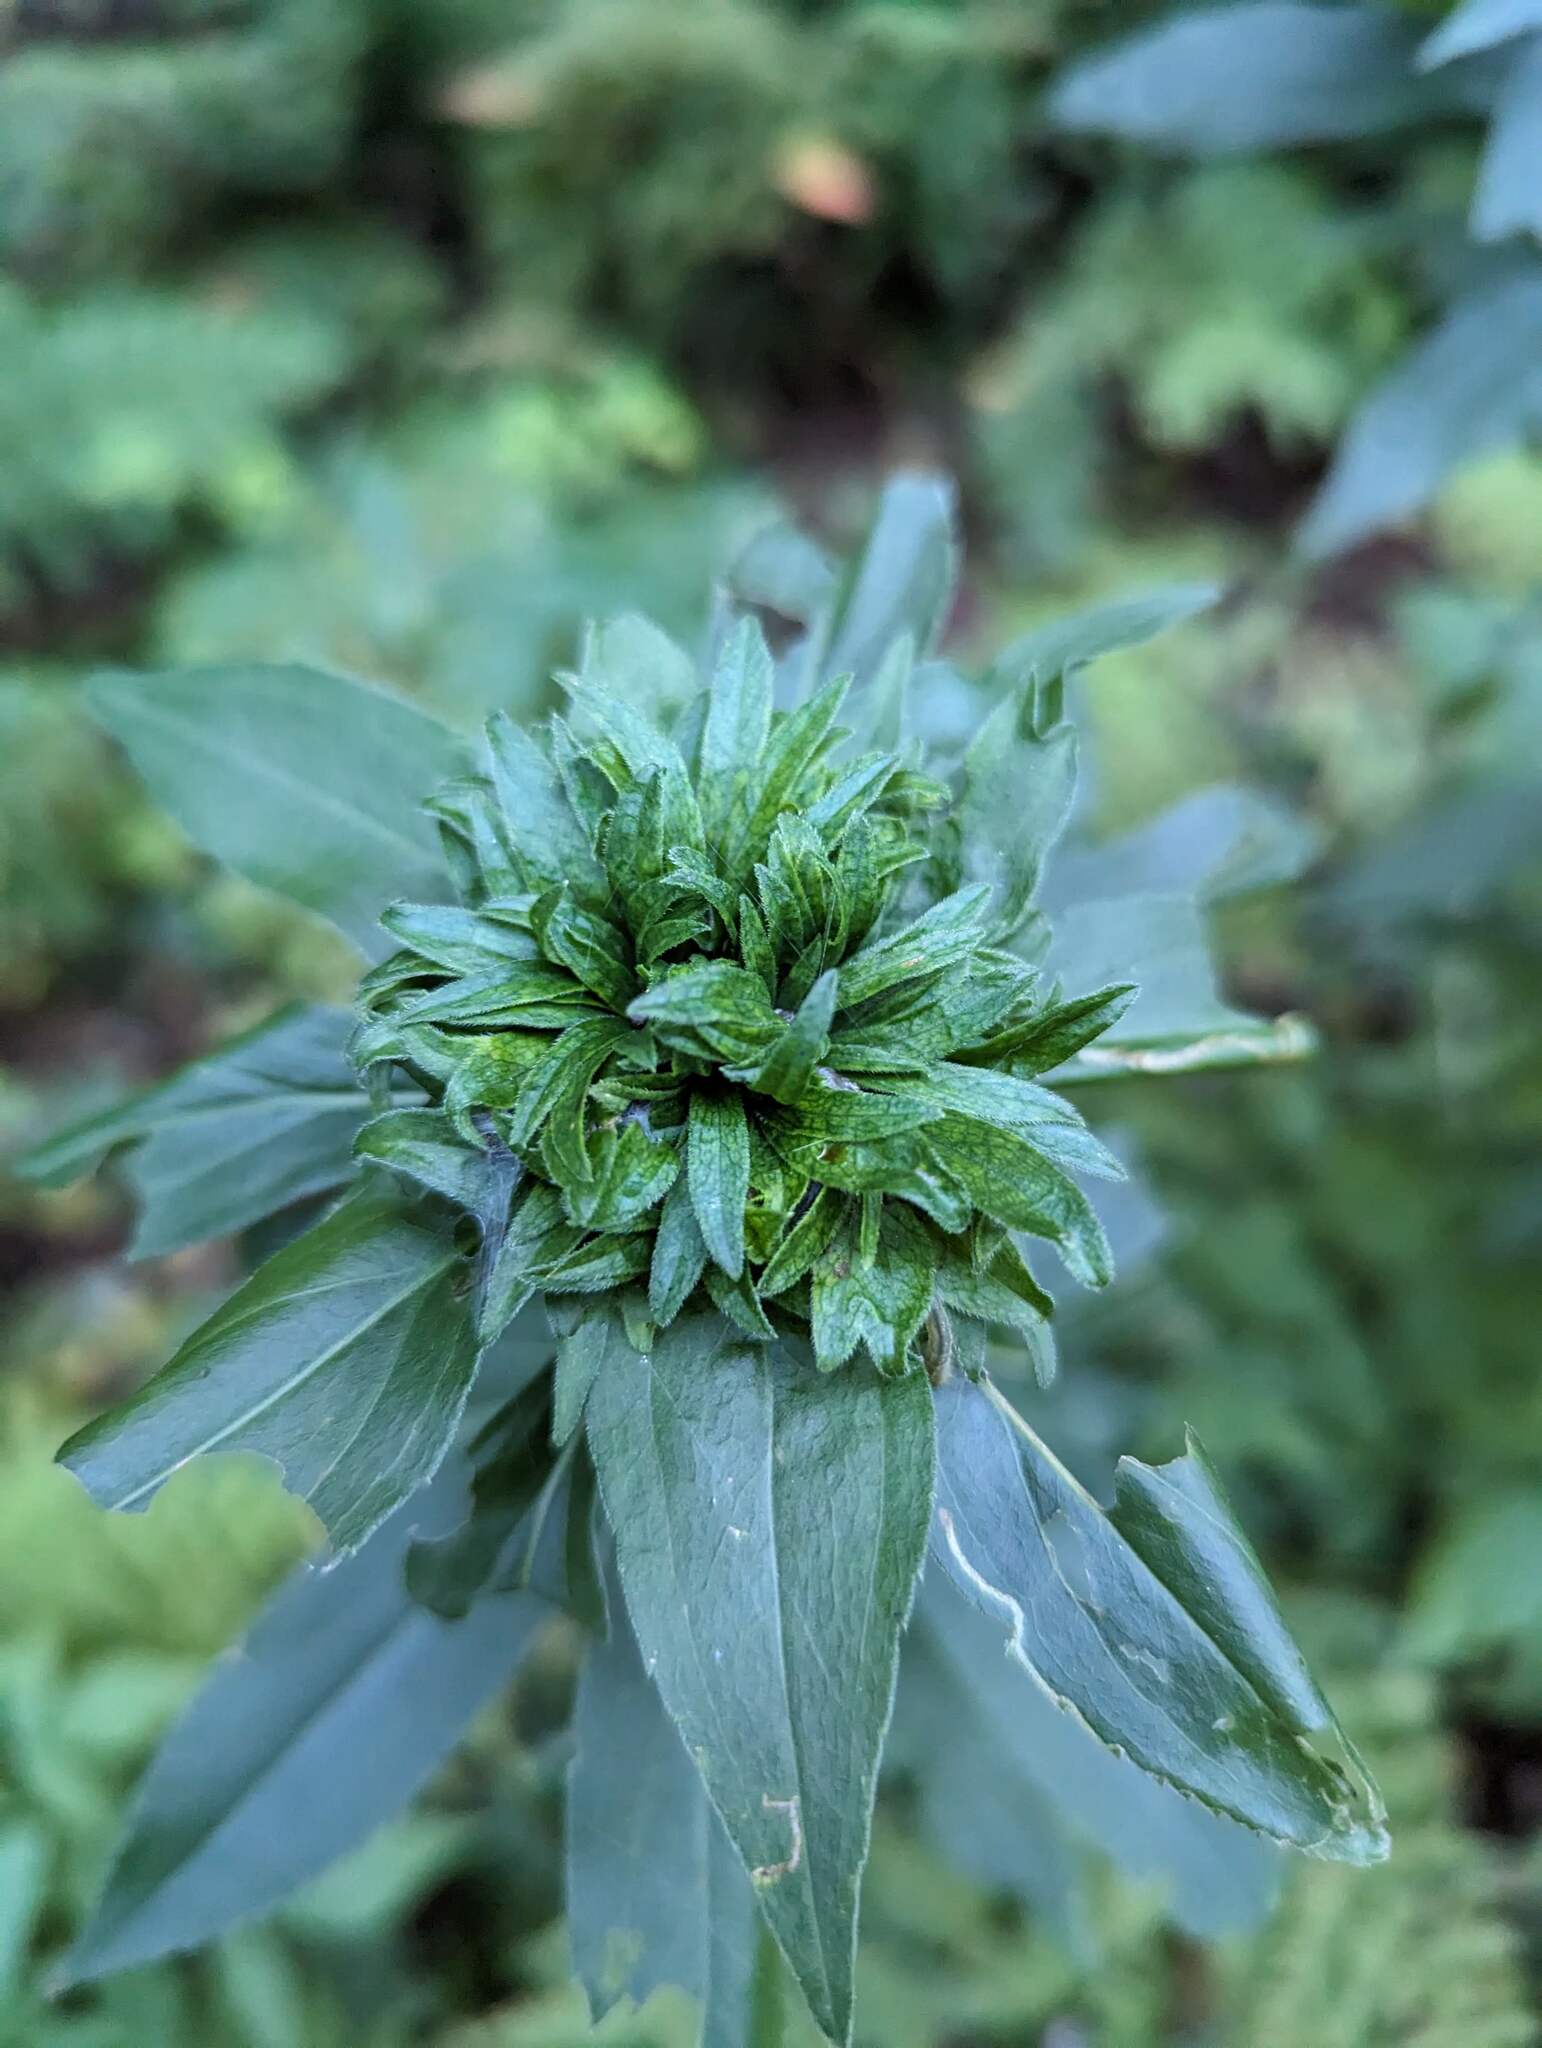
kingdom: Animalia
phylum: Arthropoda
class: Insecta
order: Diptera
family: Cecidomyiidae
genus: Rhopalomyia
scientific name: Rhopalomyia capitata
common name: Giant goldenrod bunch gall midge
